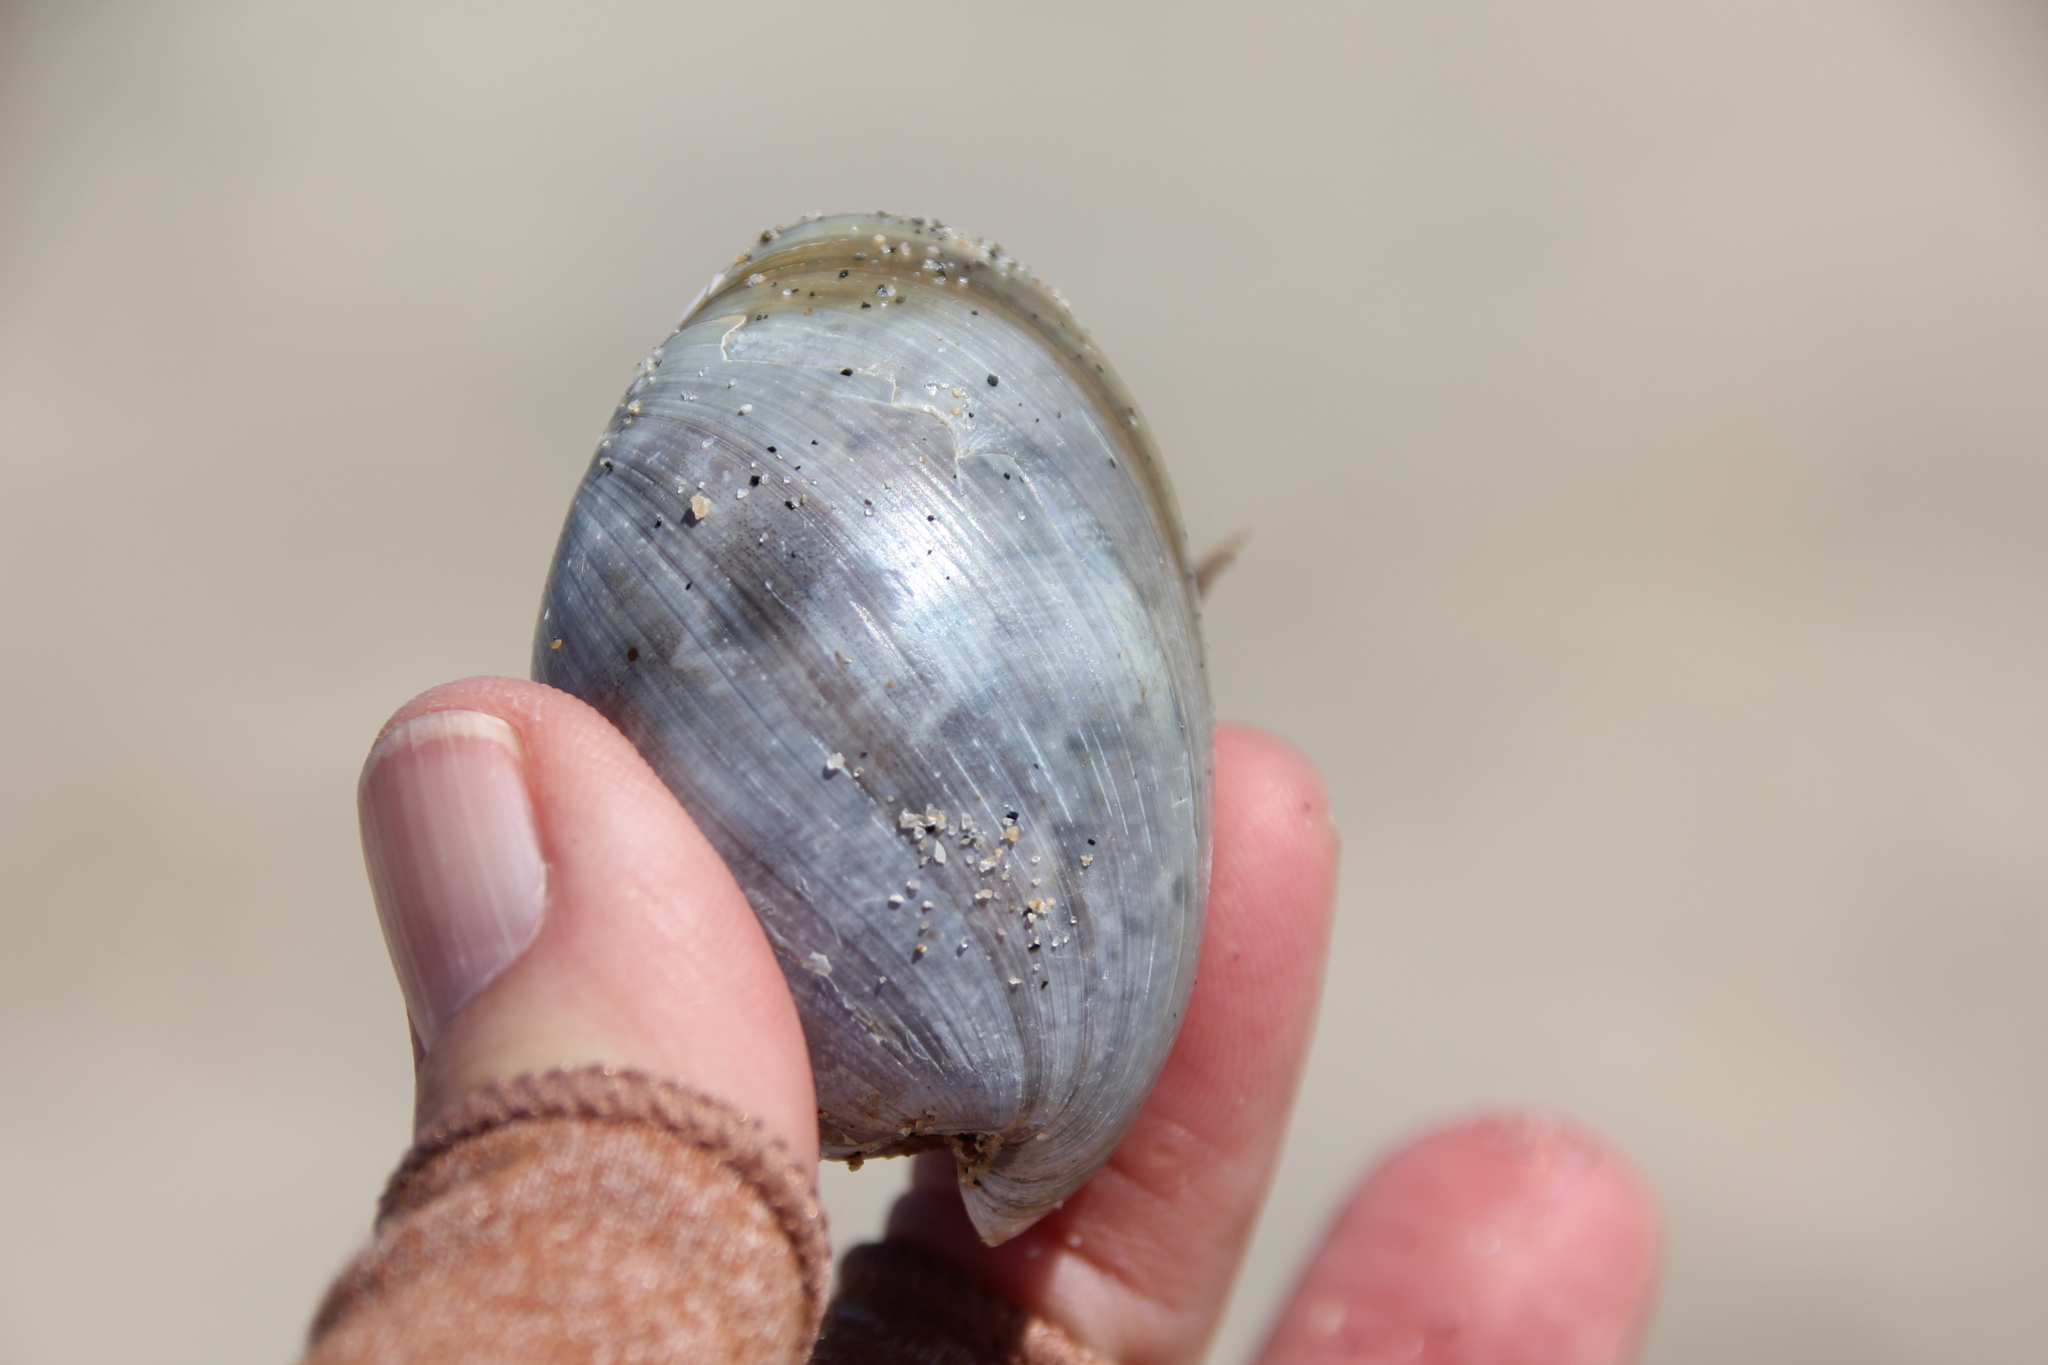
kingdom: Animalia
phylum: Mollusca
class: Gastropoda
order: Cephalaspidea
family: Bullidae
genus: Bulla
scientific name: Bulla gouldiana
